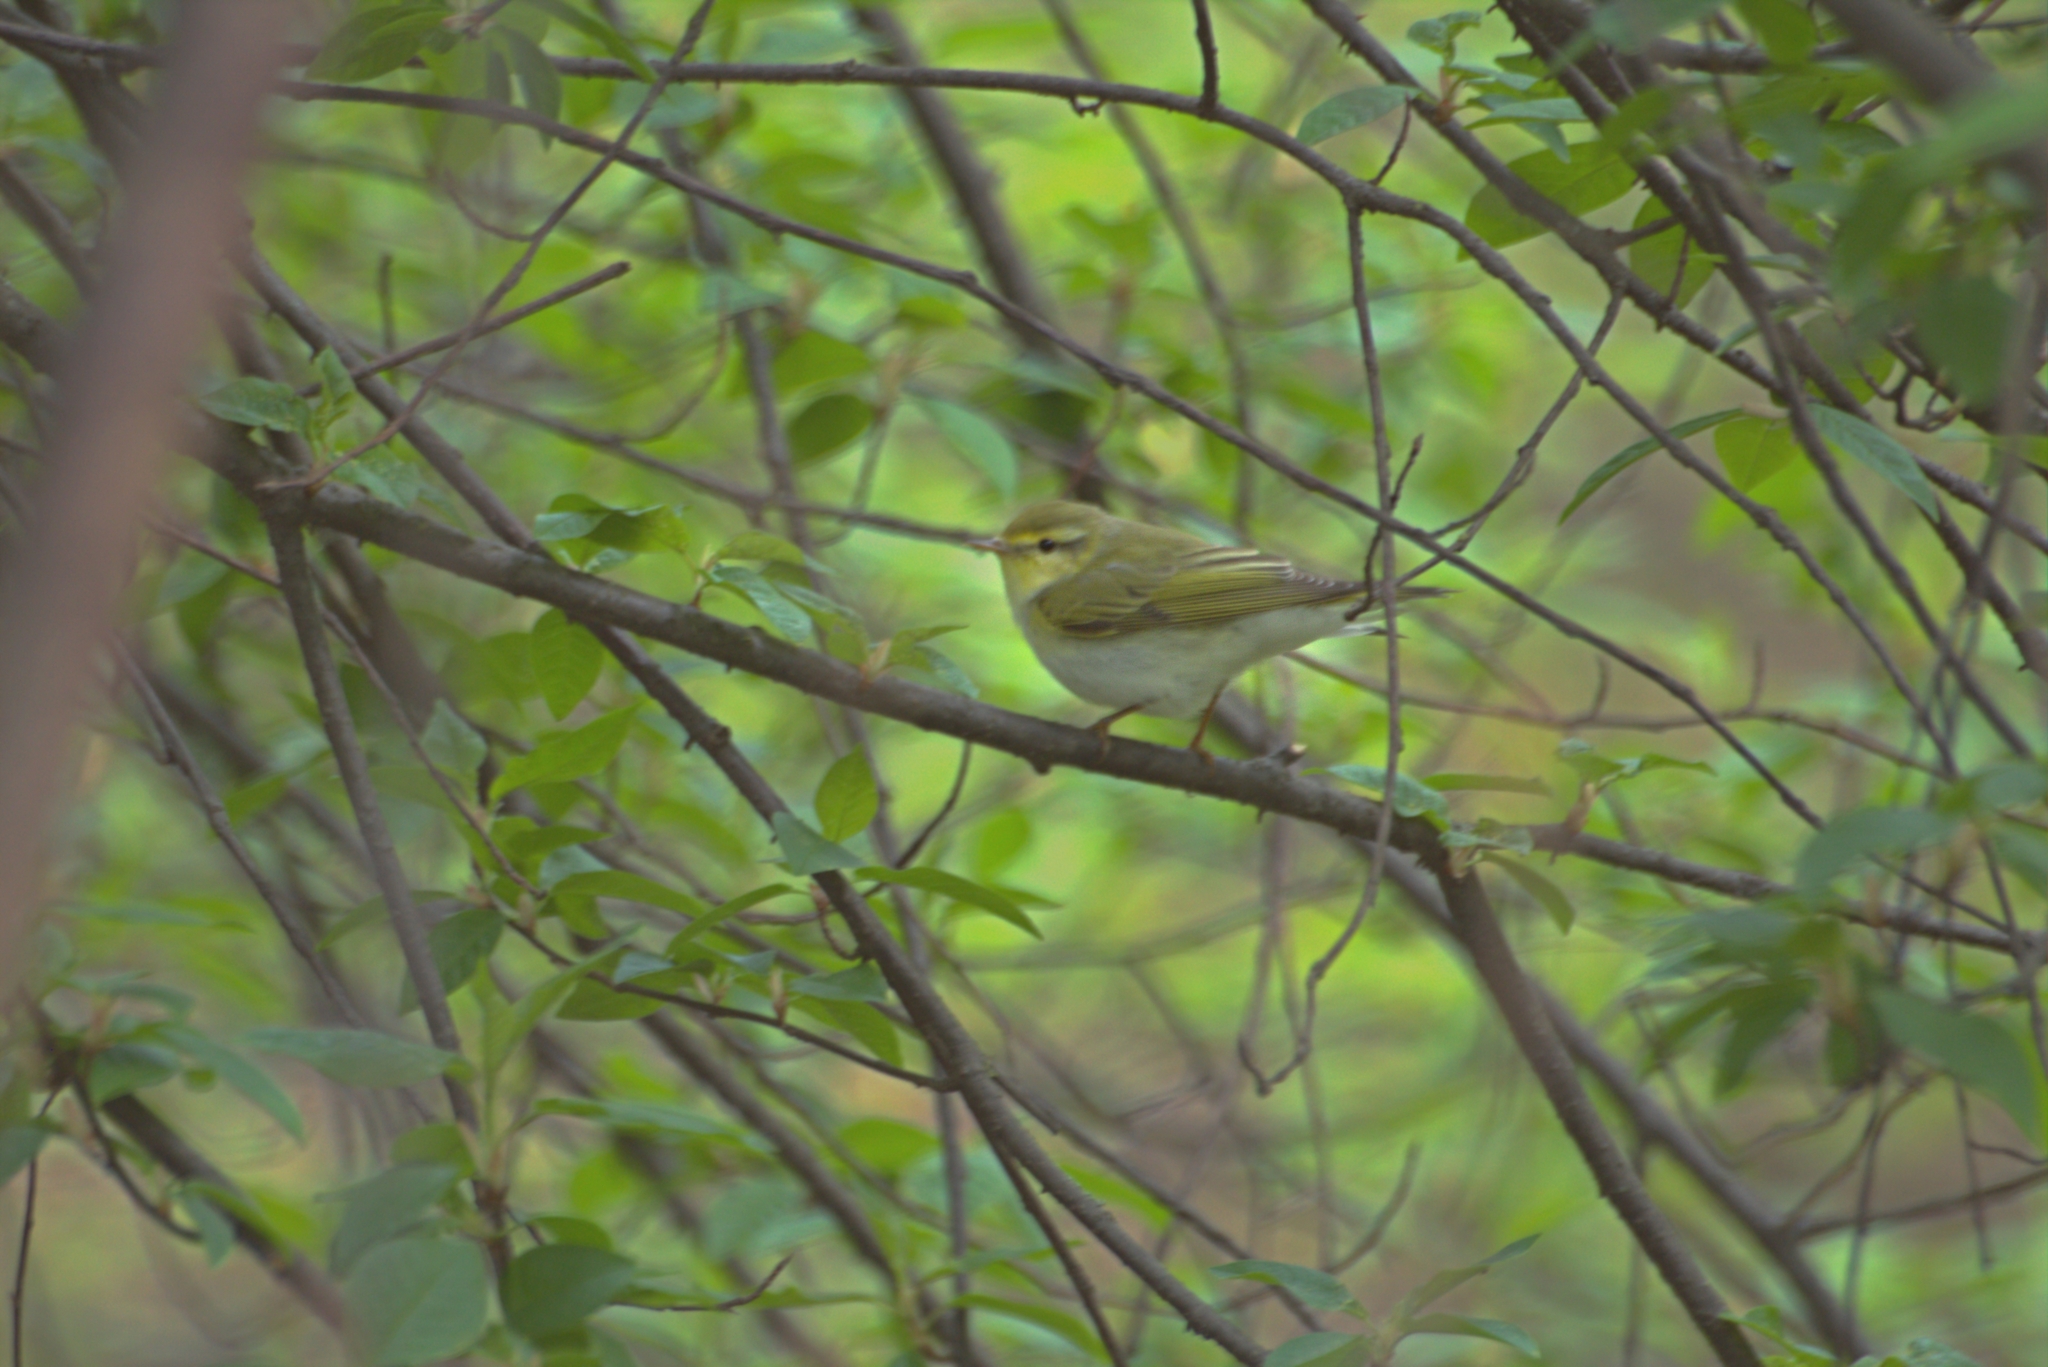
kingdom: Animalia
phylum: Chordata
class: Aves
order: Passeriformes
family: Phylloscopidae
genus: Phylloscopus
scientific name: Phylloscopus sibillatrix
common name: Wood warbler
